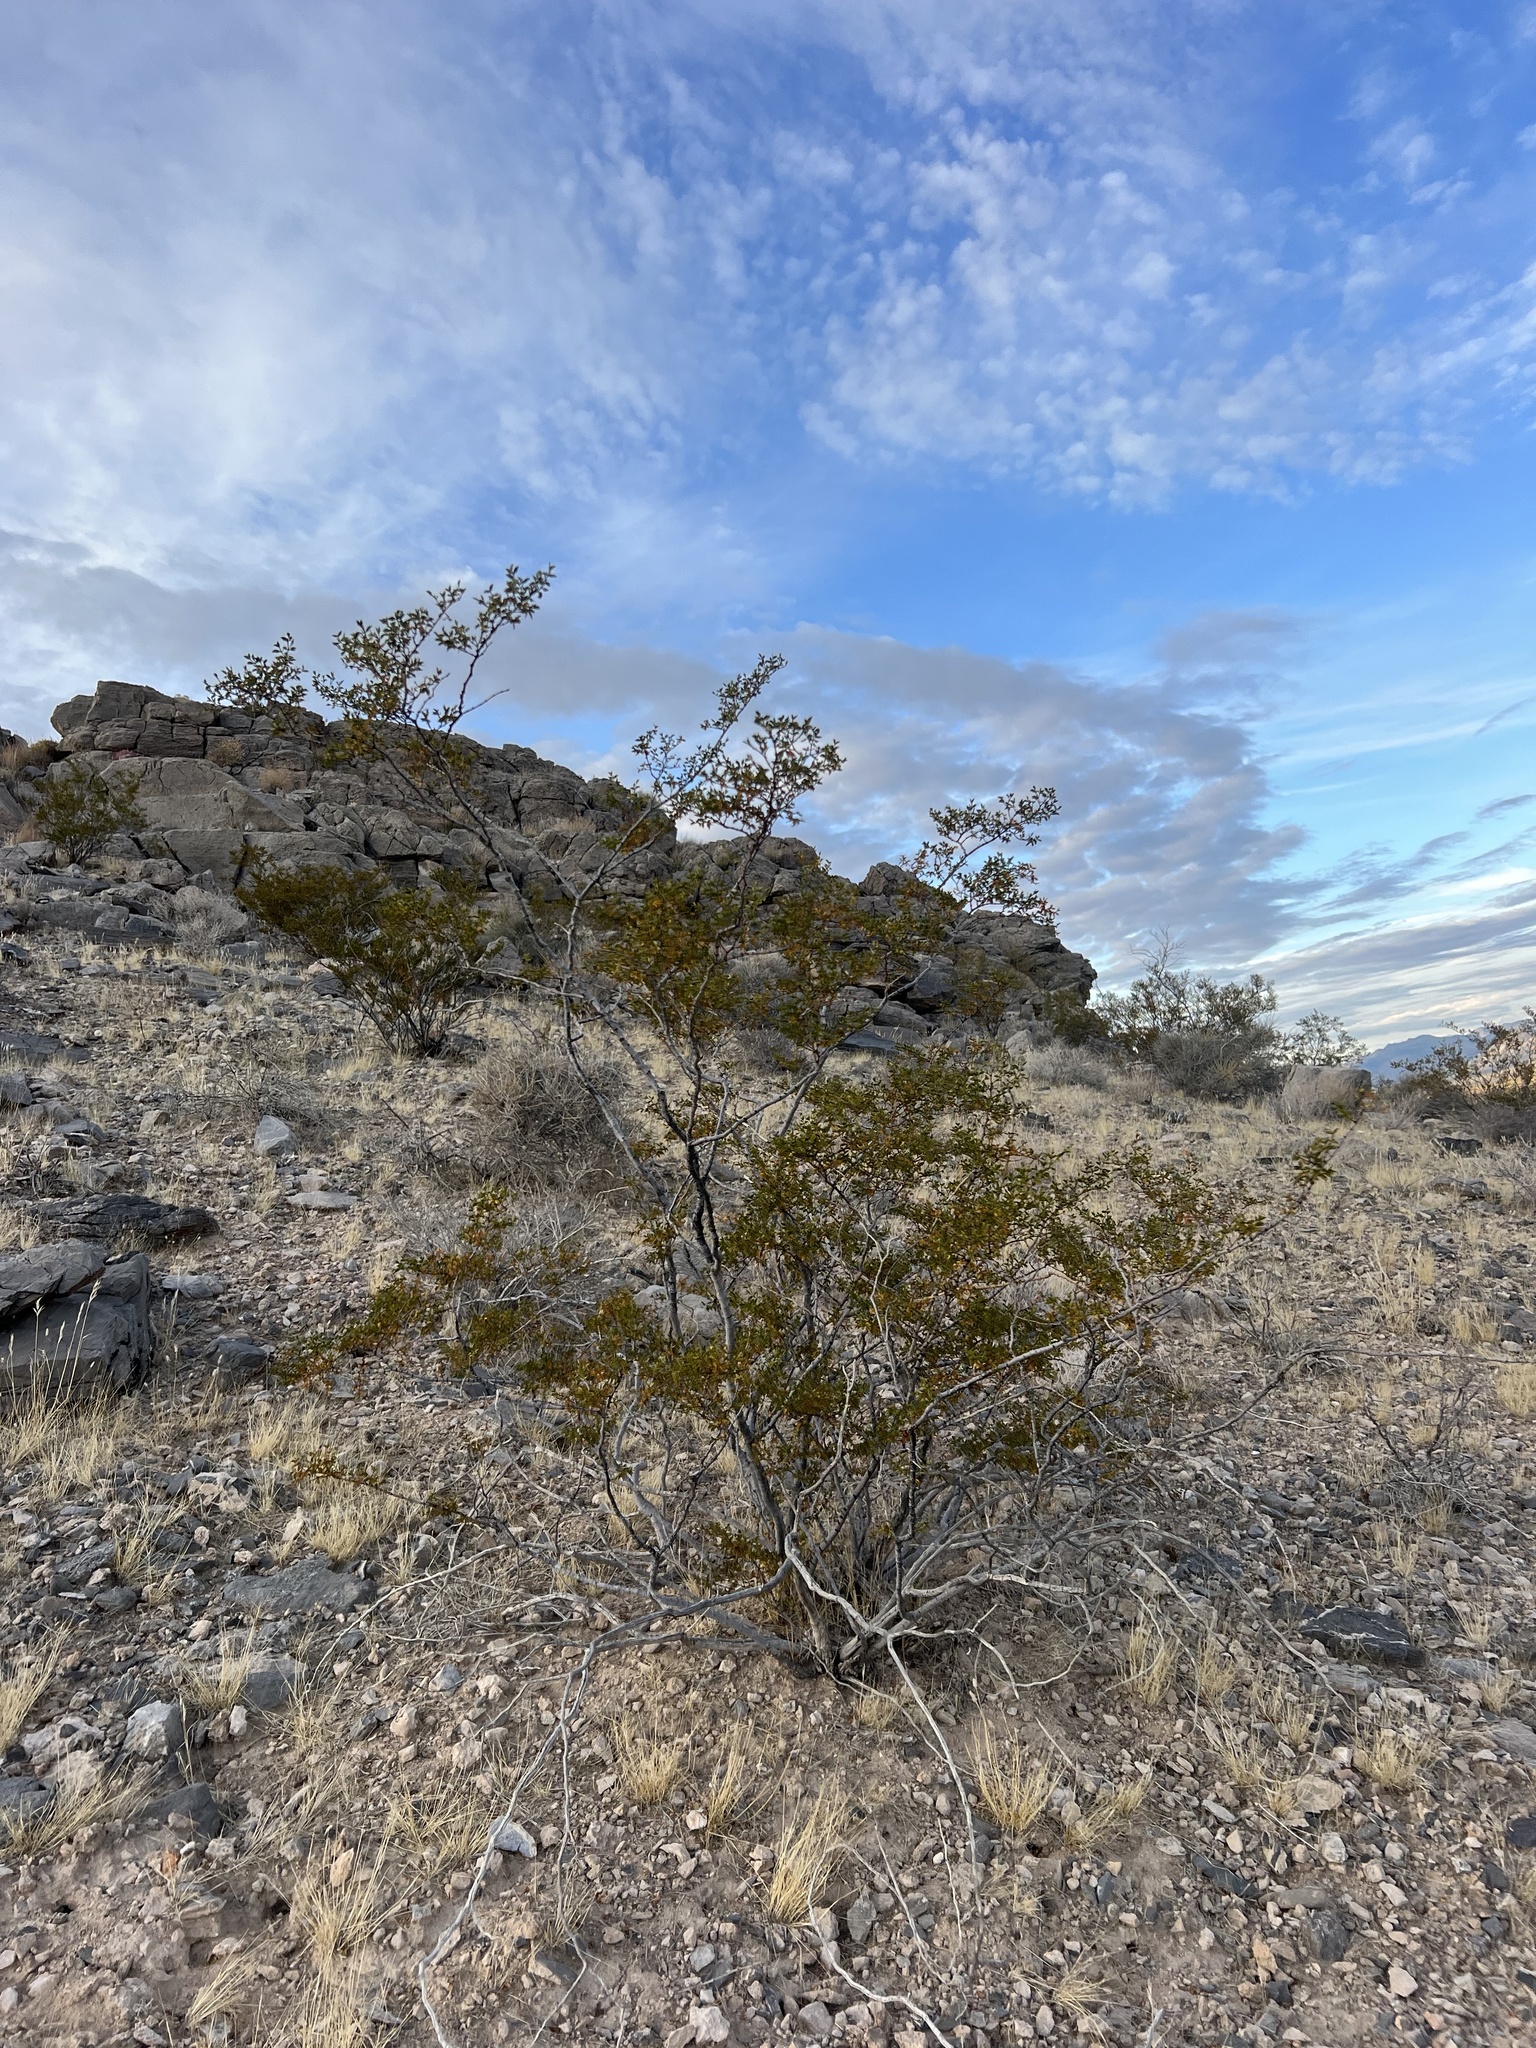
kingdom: Plantae
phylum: Tracheophyta
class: Magnoliopsida
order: Zygophyllales
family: Zygophyllaceae
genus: Larrea
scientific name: Larrea tridentata
